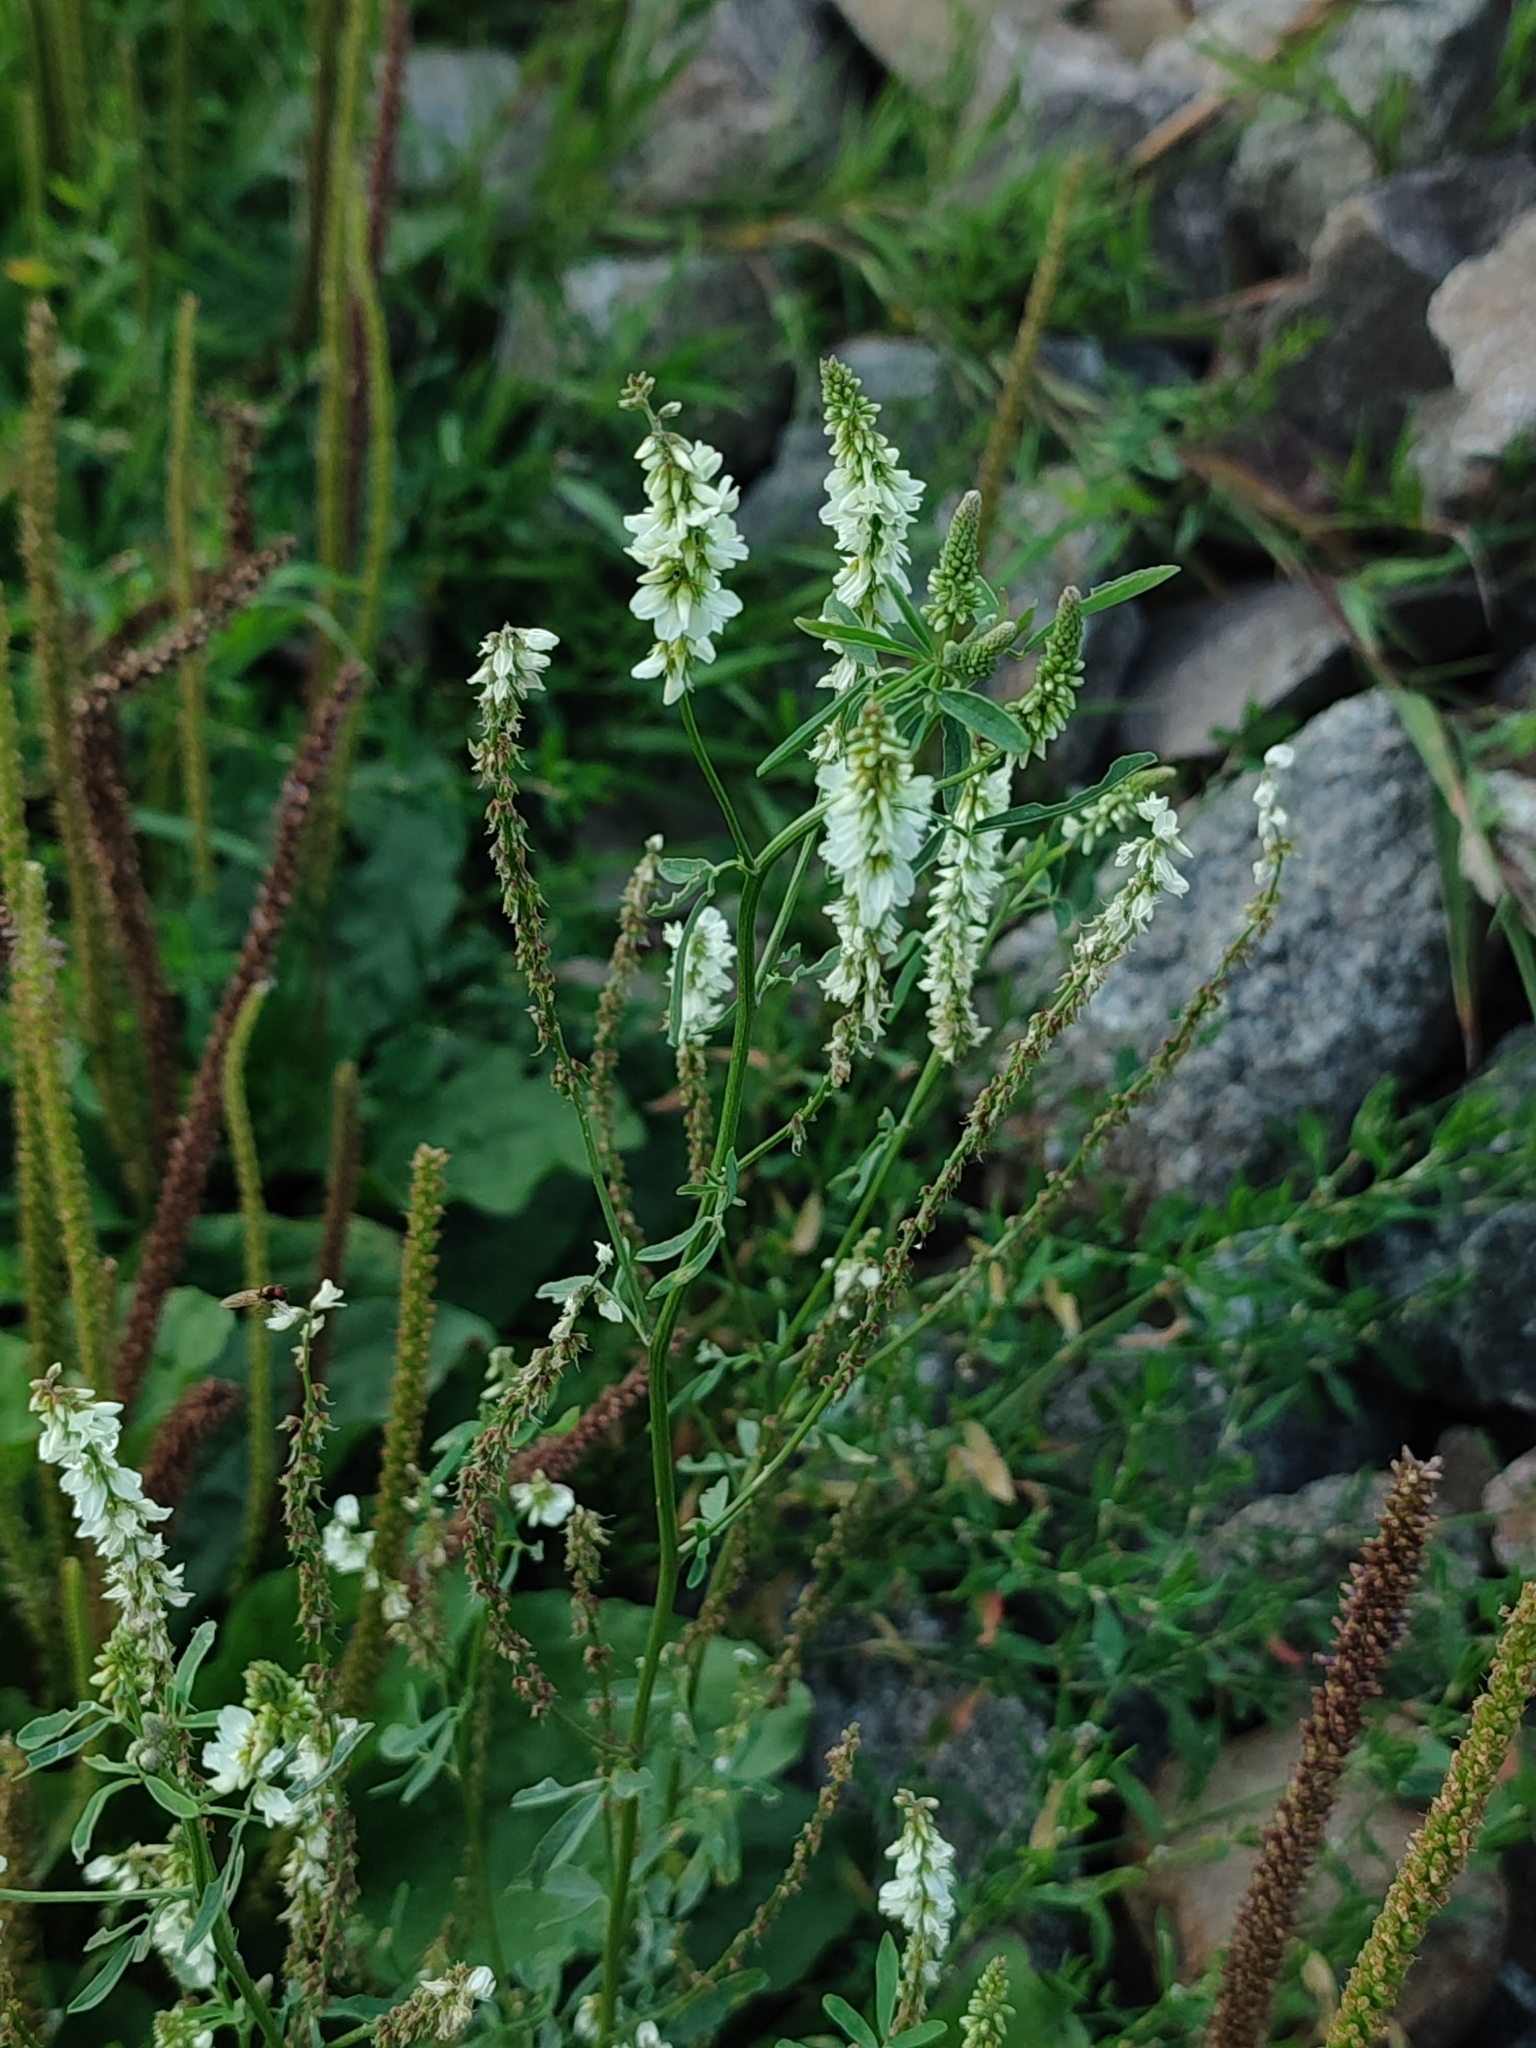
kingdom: Plantae
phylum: Tracheophyta
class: Magnoliopsida
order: Fabales
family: Fabaceae
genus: Melilotus
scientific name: Melilotus albus
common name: White melilot
